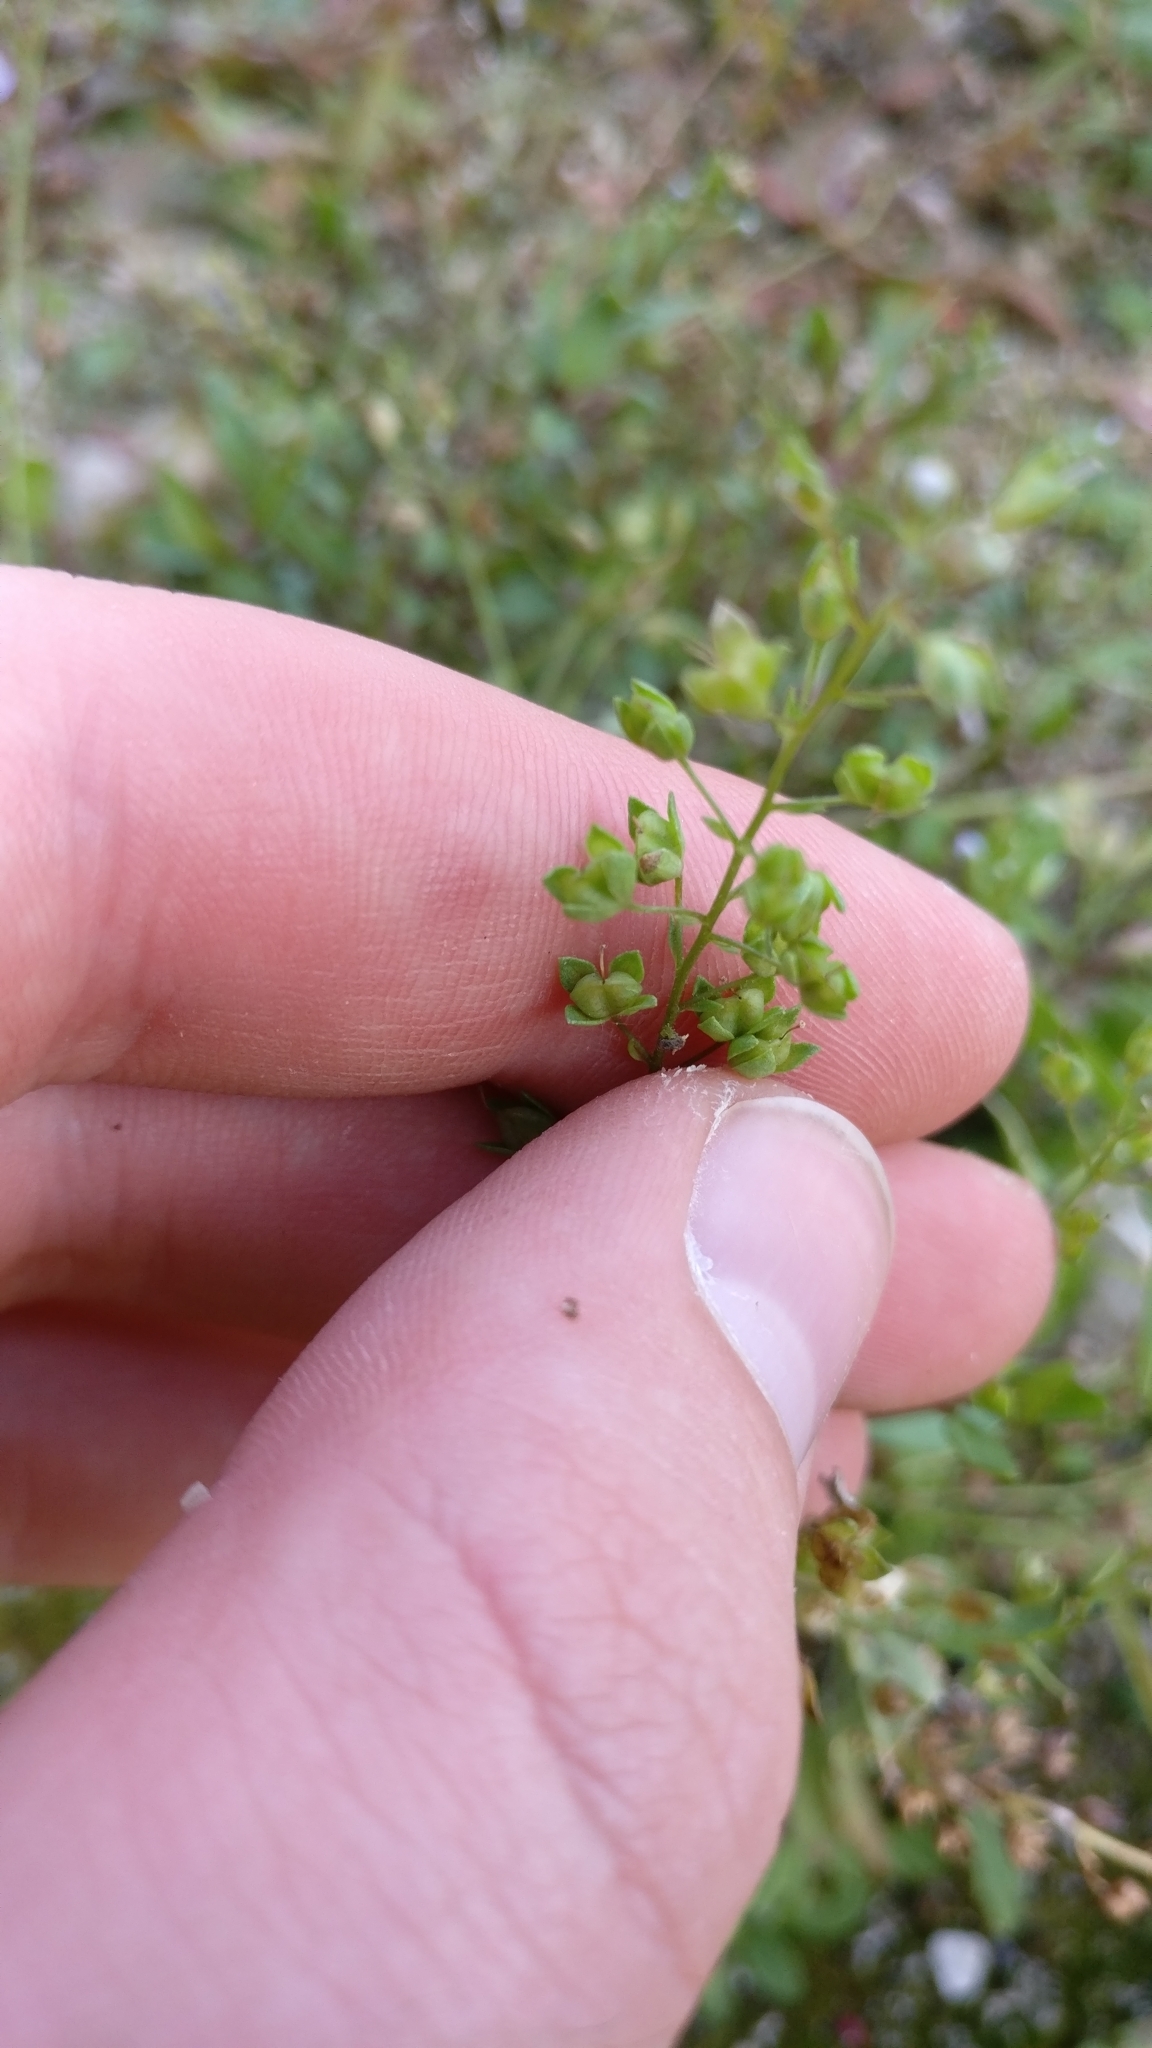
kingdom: Plantae
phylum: Tracheophyta
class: Magnoliopsida
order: Lamiales
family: Plantaginaceae
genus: Veronica
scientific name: Veronica anagallis-aquatica
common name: Water speedwell
